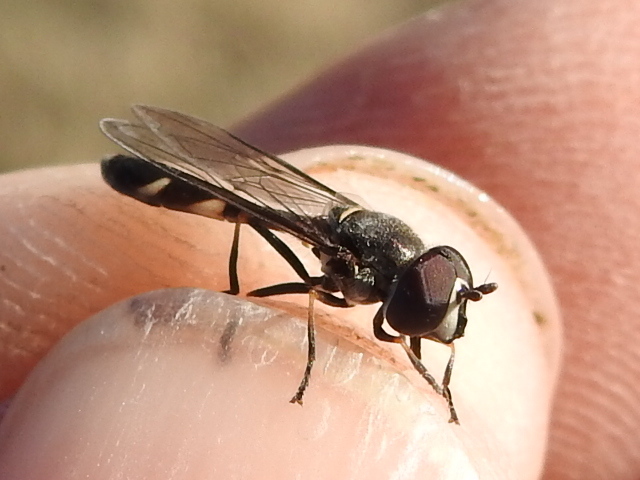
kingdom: Animalia
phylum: Arthropoda
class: Insecta
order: Diptera
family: Syrphidae
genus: Dioprosopa
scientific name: Dioprosopa clavatus
